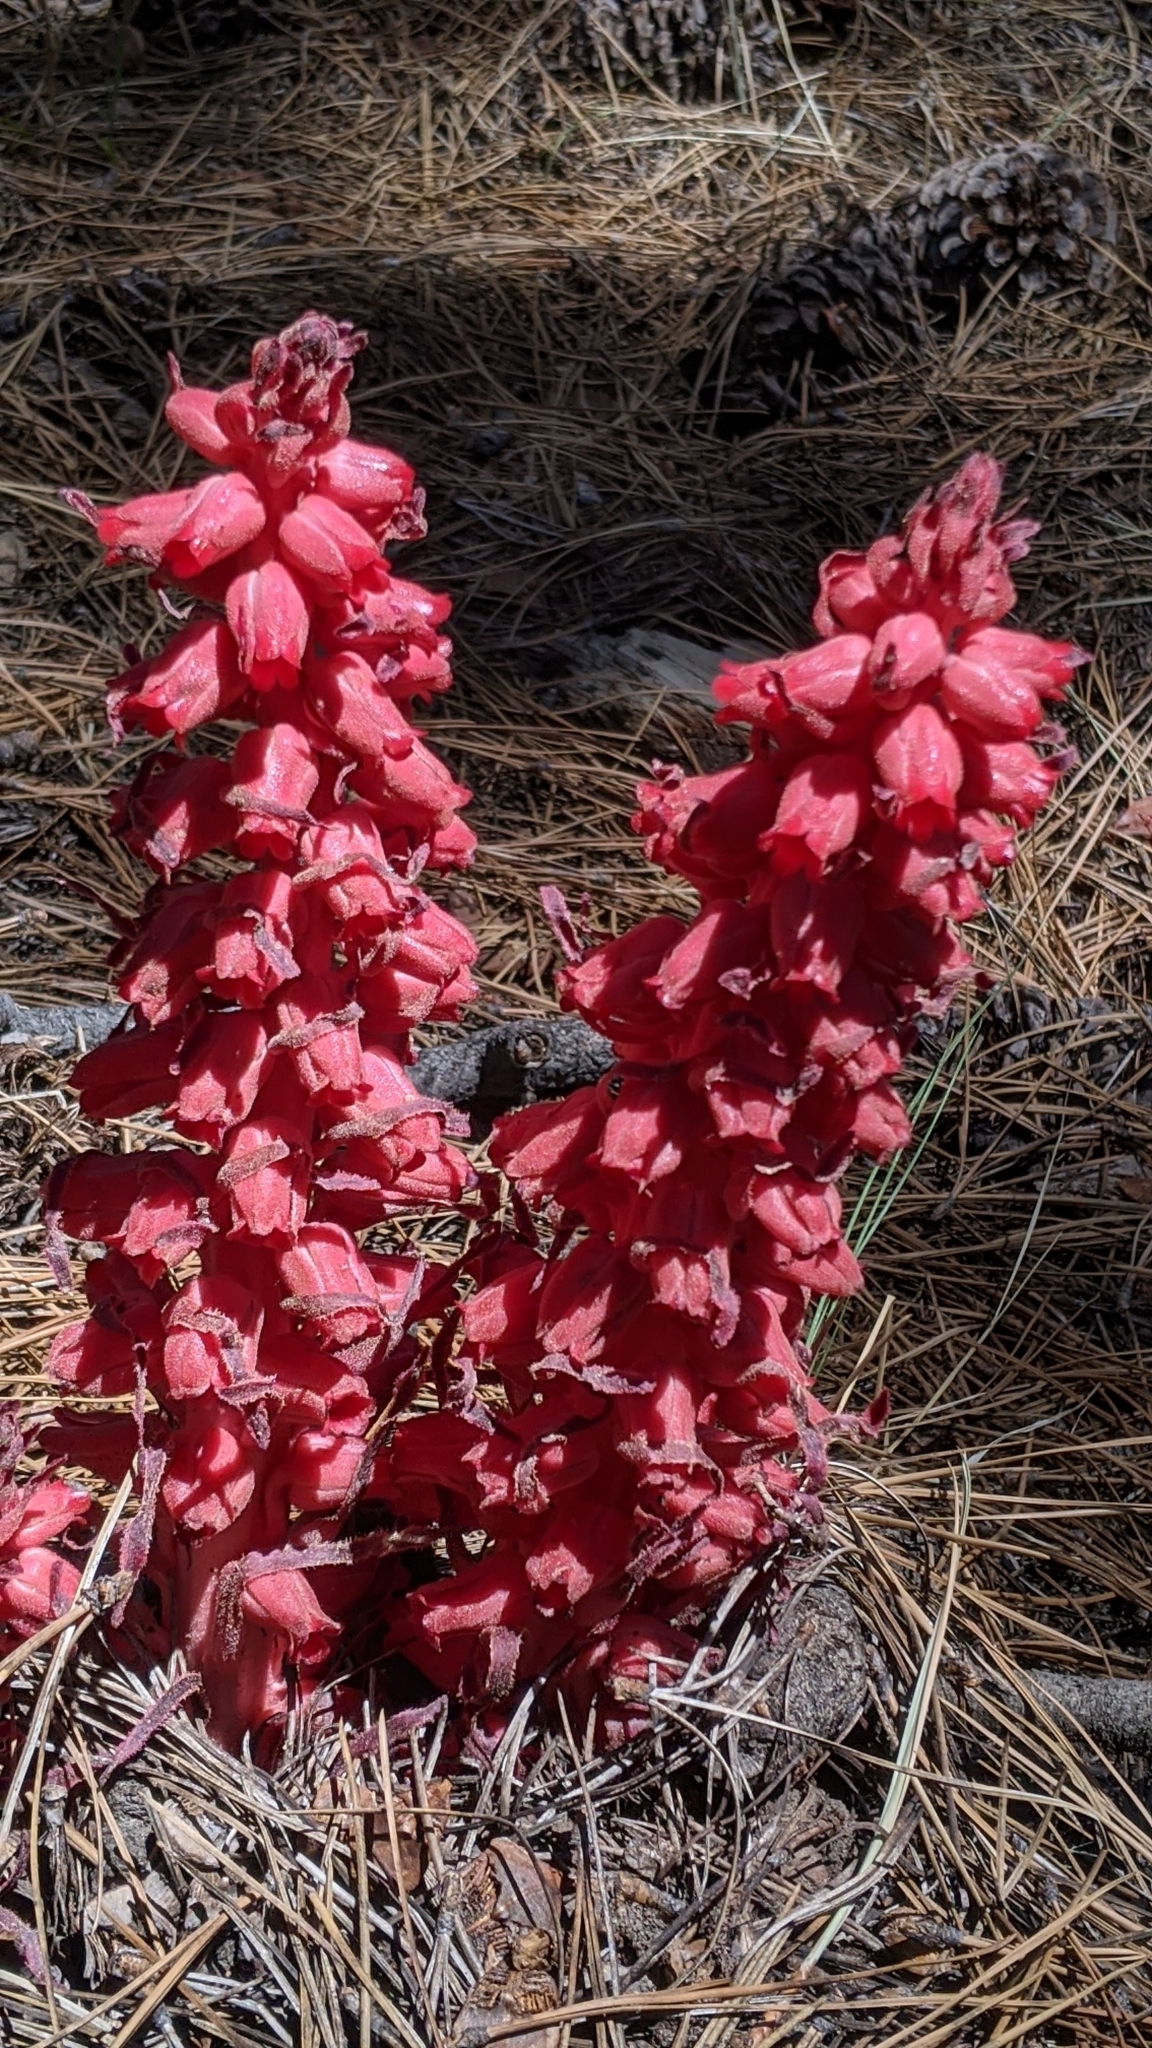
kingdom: Plantae
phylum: Tracheophyta
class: Magnoliopsida
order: Ericales
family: Ericaceae
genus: Sarcodes
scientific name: Sarcodes sanguinea
